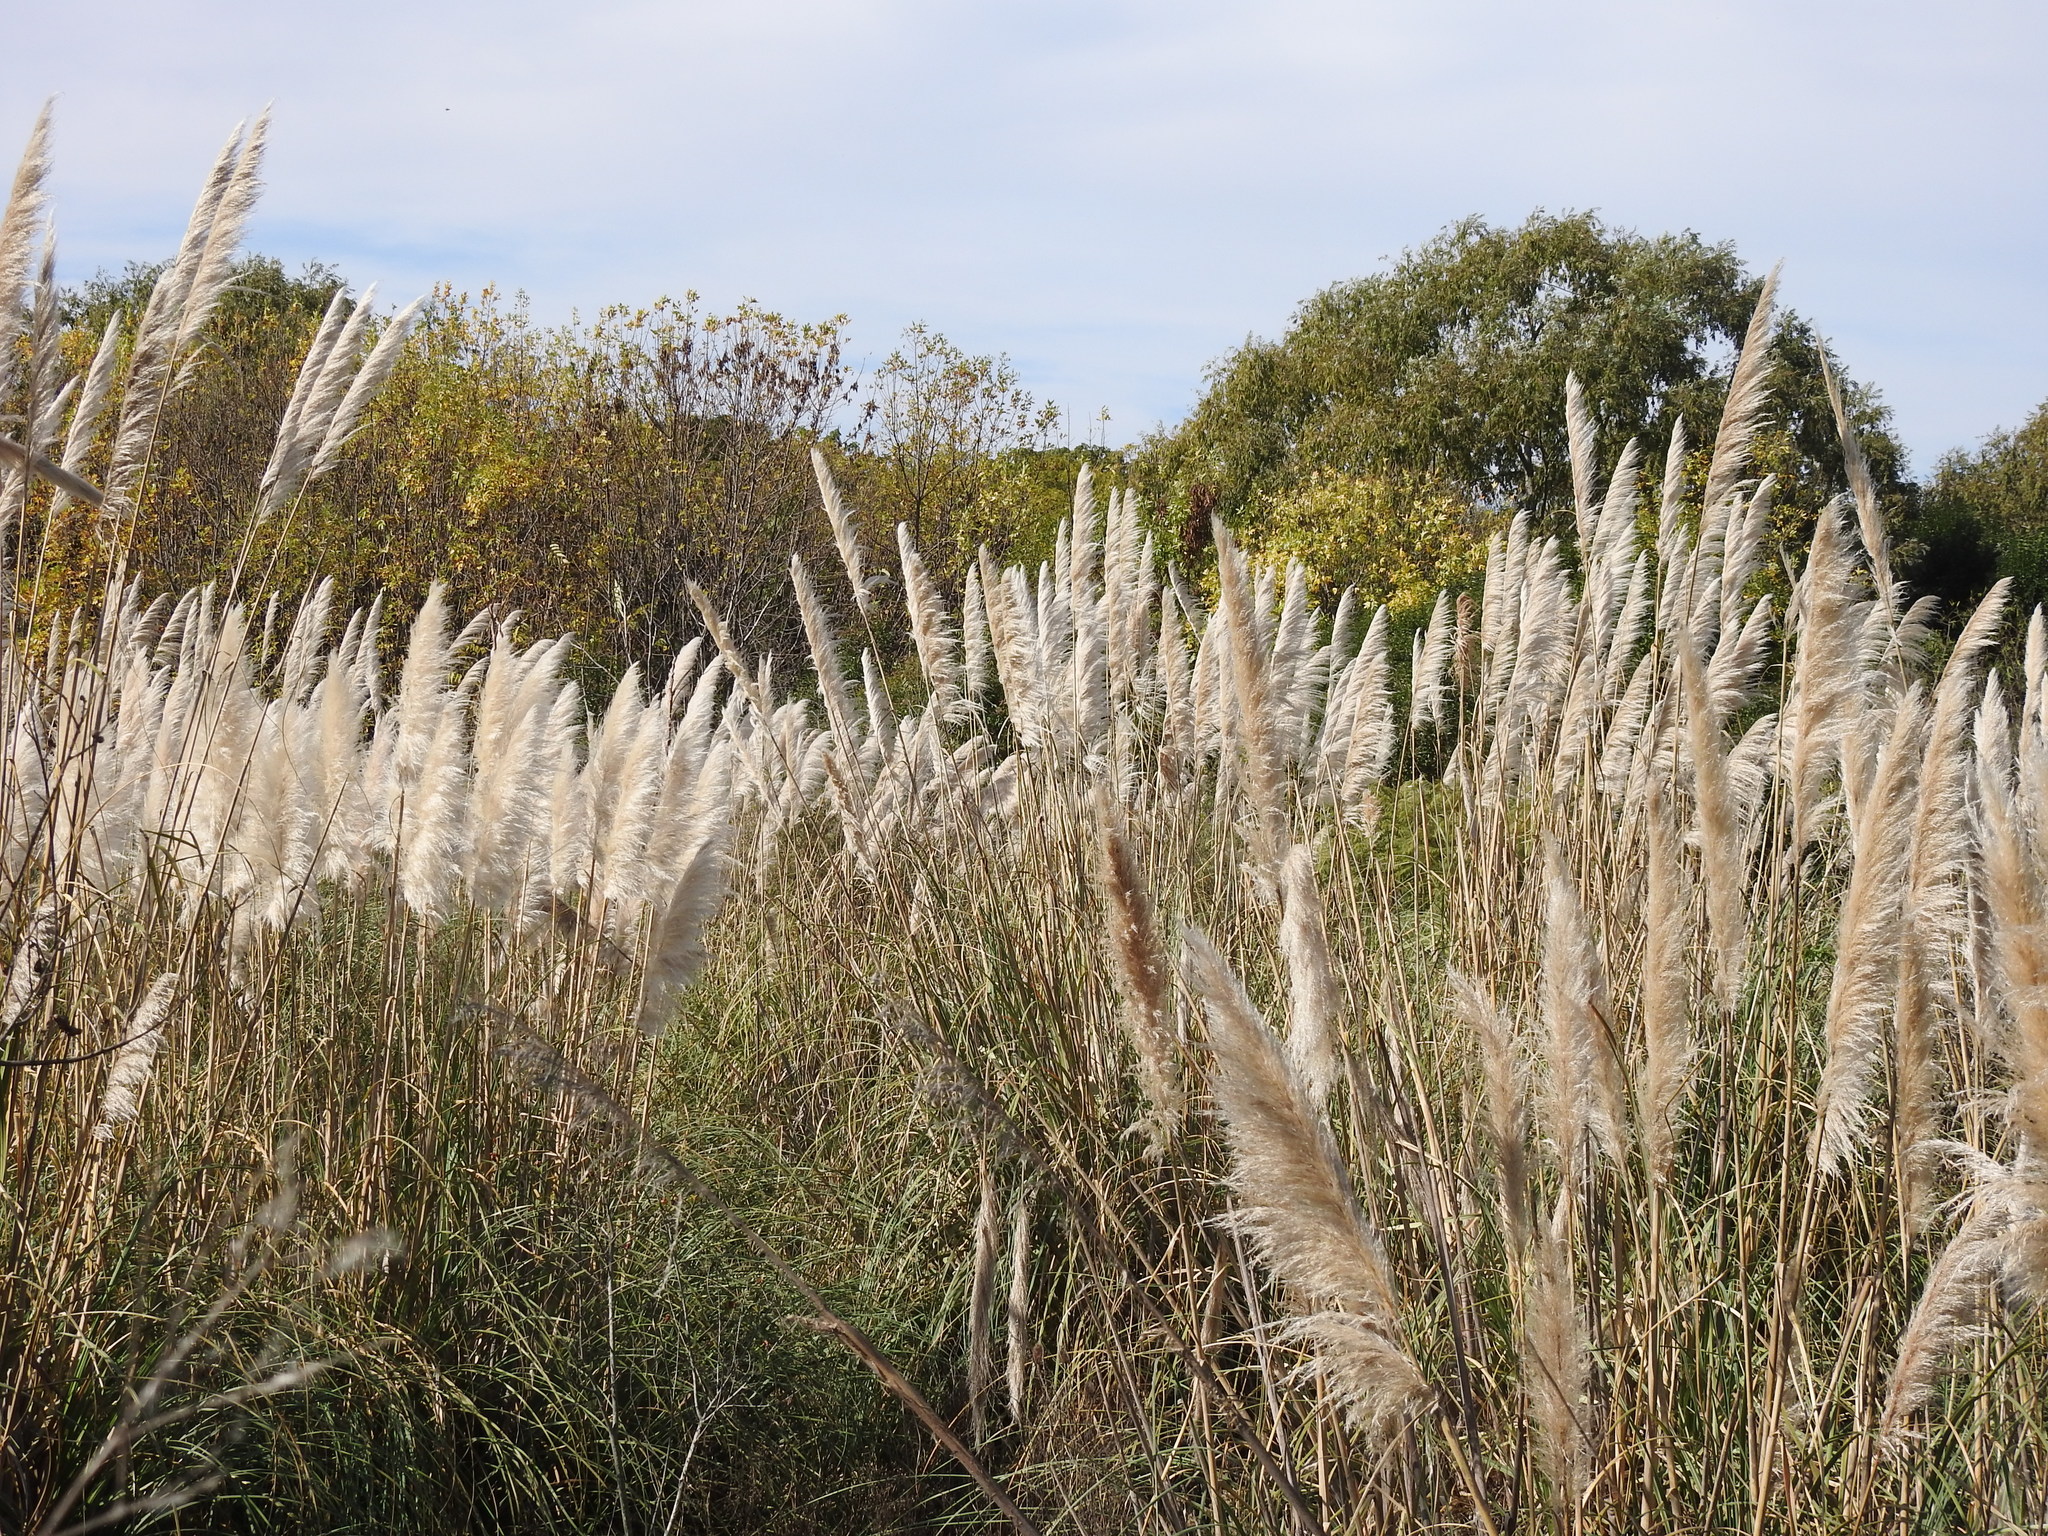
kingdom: Plantae
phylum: Tracheophyta
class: Liliopsida
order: Poales
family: Poaceae
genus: Cortaderia
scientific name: Cortaderia selloana
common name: Uruguayan pampas grass
